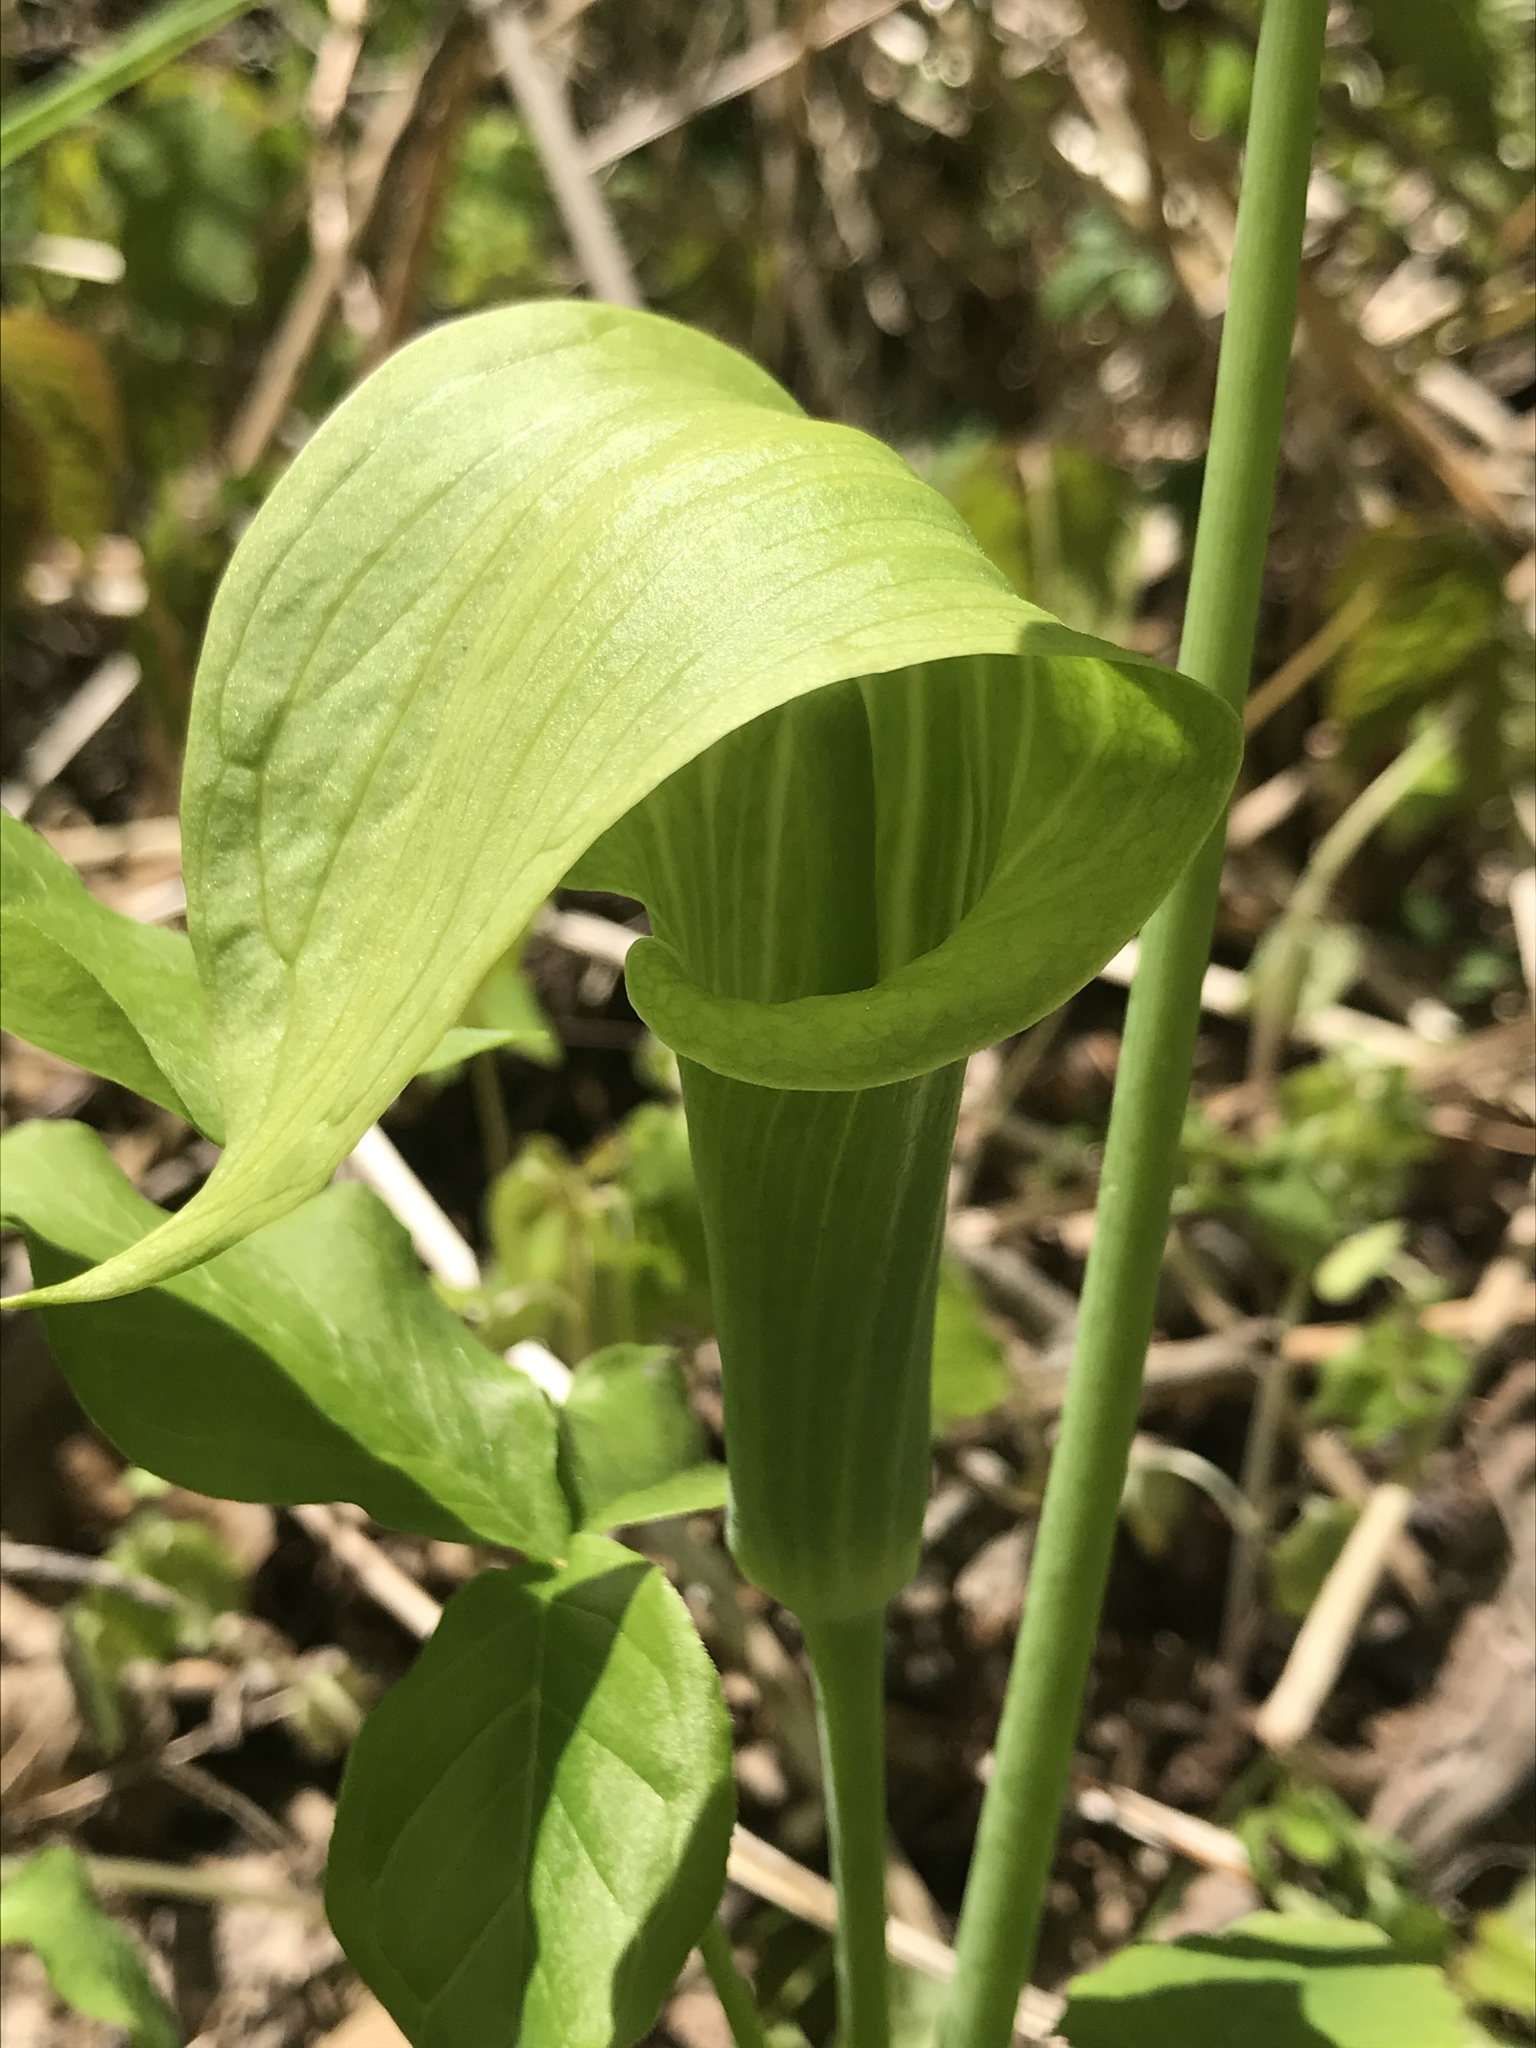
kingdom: Plantae
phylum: Tracheophyta
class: Liliopsida
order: Alismatales
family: Araceae
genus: Arisaema
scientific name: Arisaema triphyllum
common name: Jack-in-the-pulpit
